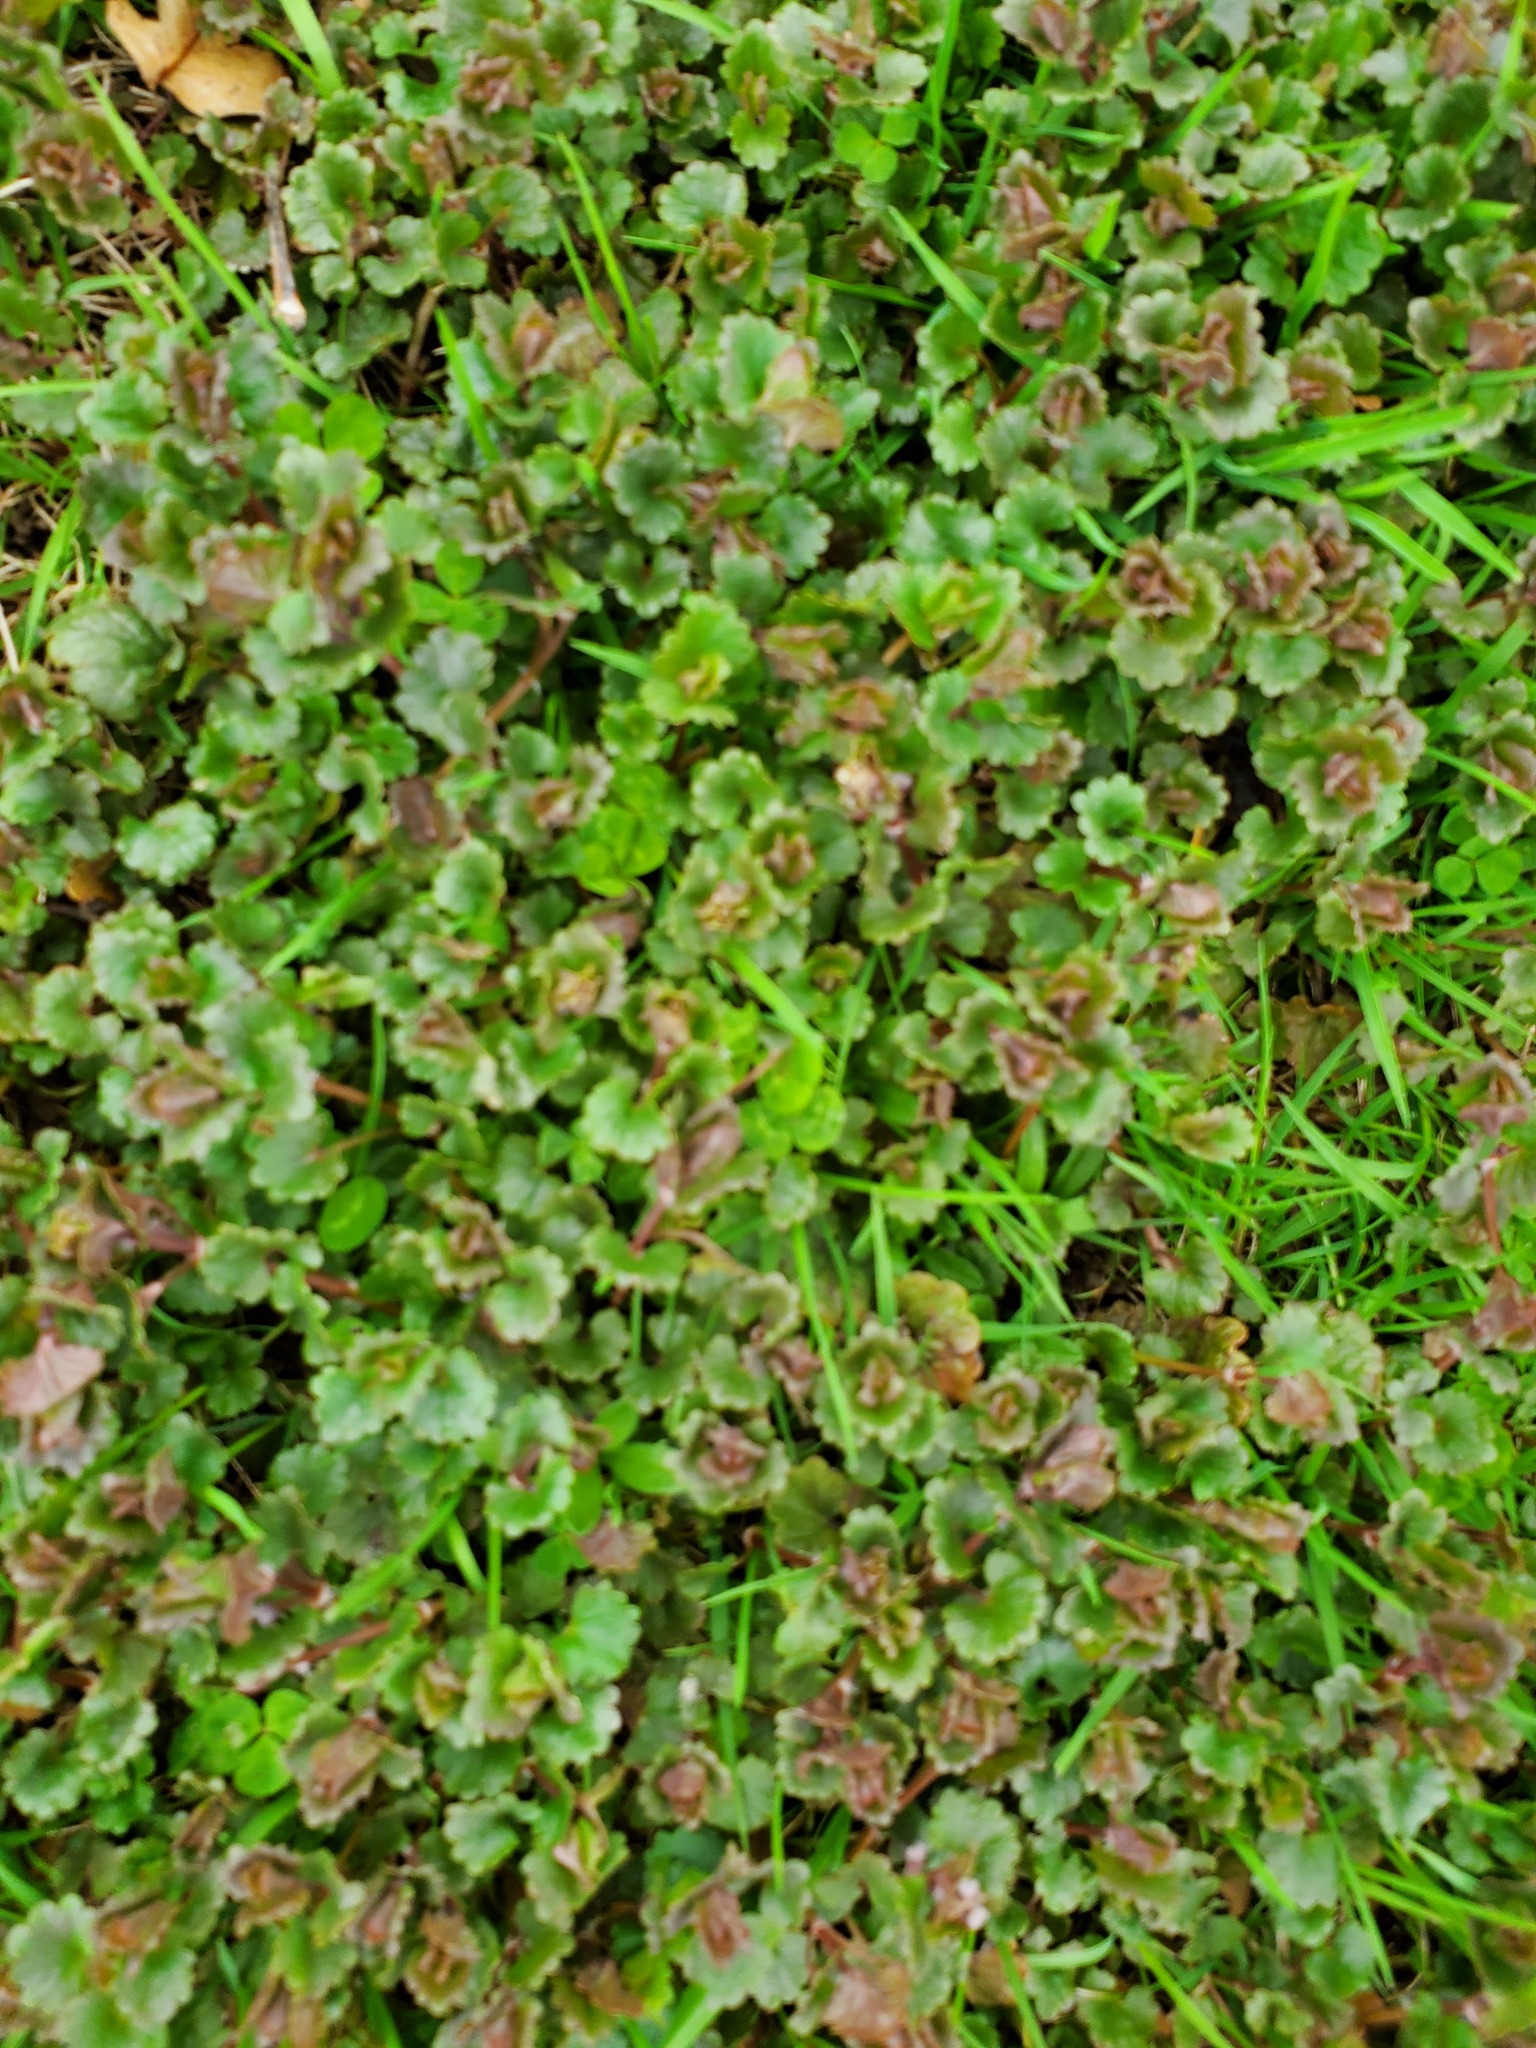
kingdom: Plantae
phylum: Tracheophyta
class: Magnoliopsida
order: Lamiales
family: Lamiaceae
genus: Glechoma
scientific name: Glechoma hederacea
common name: Ground ivy
